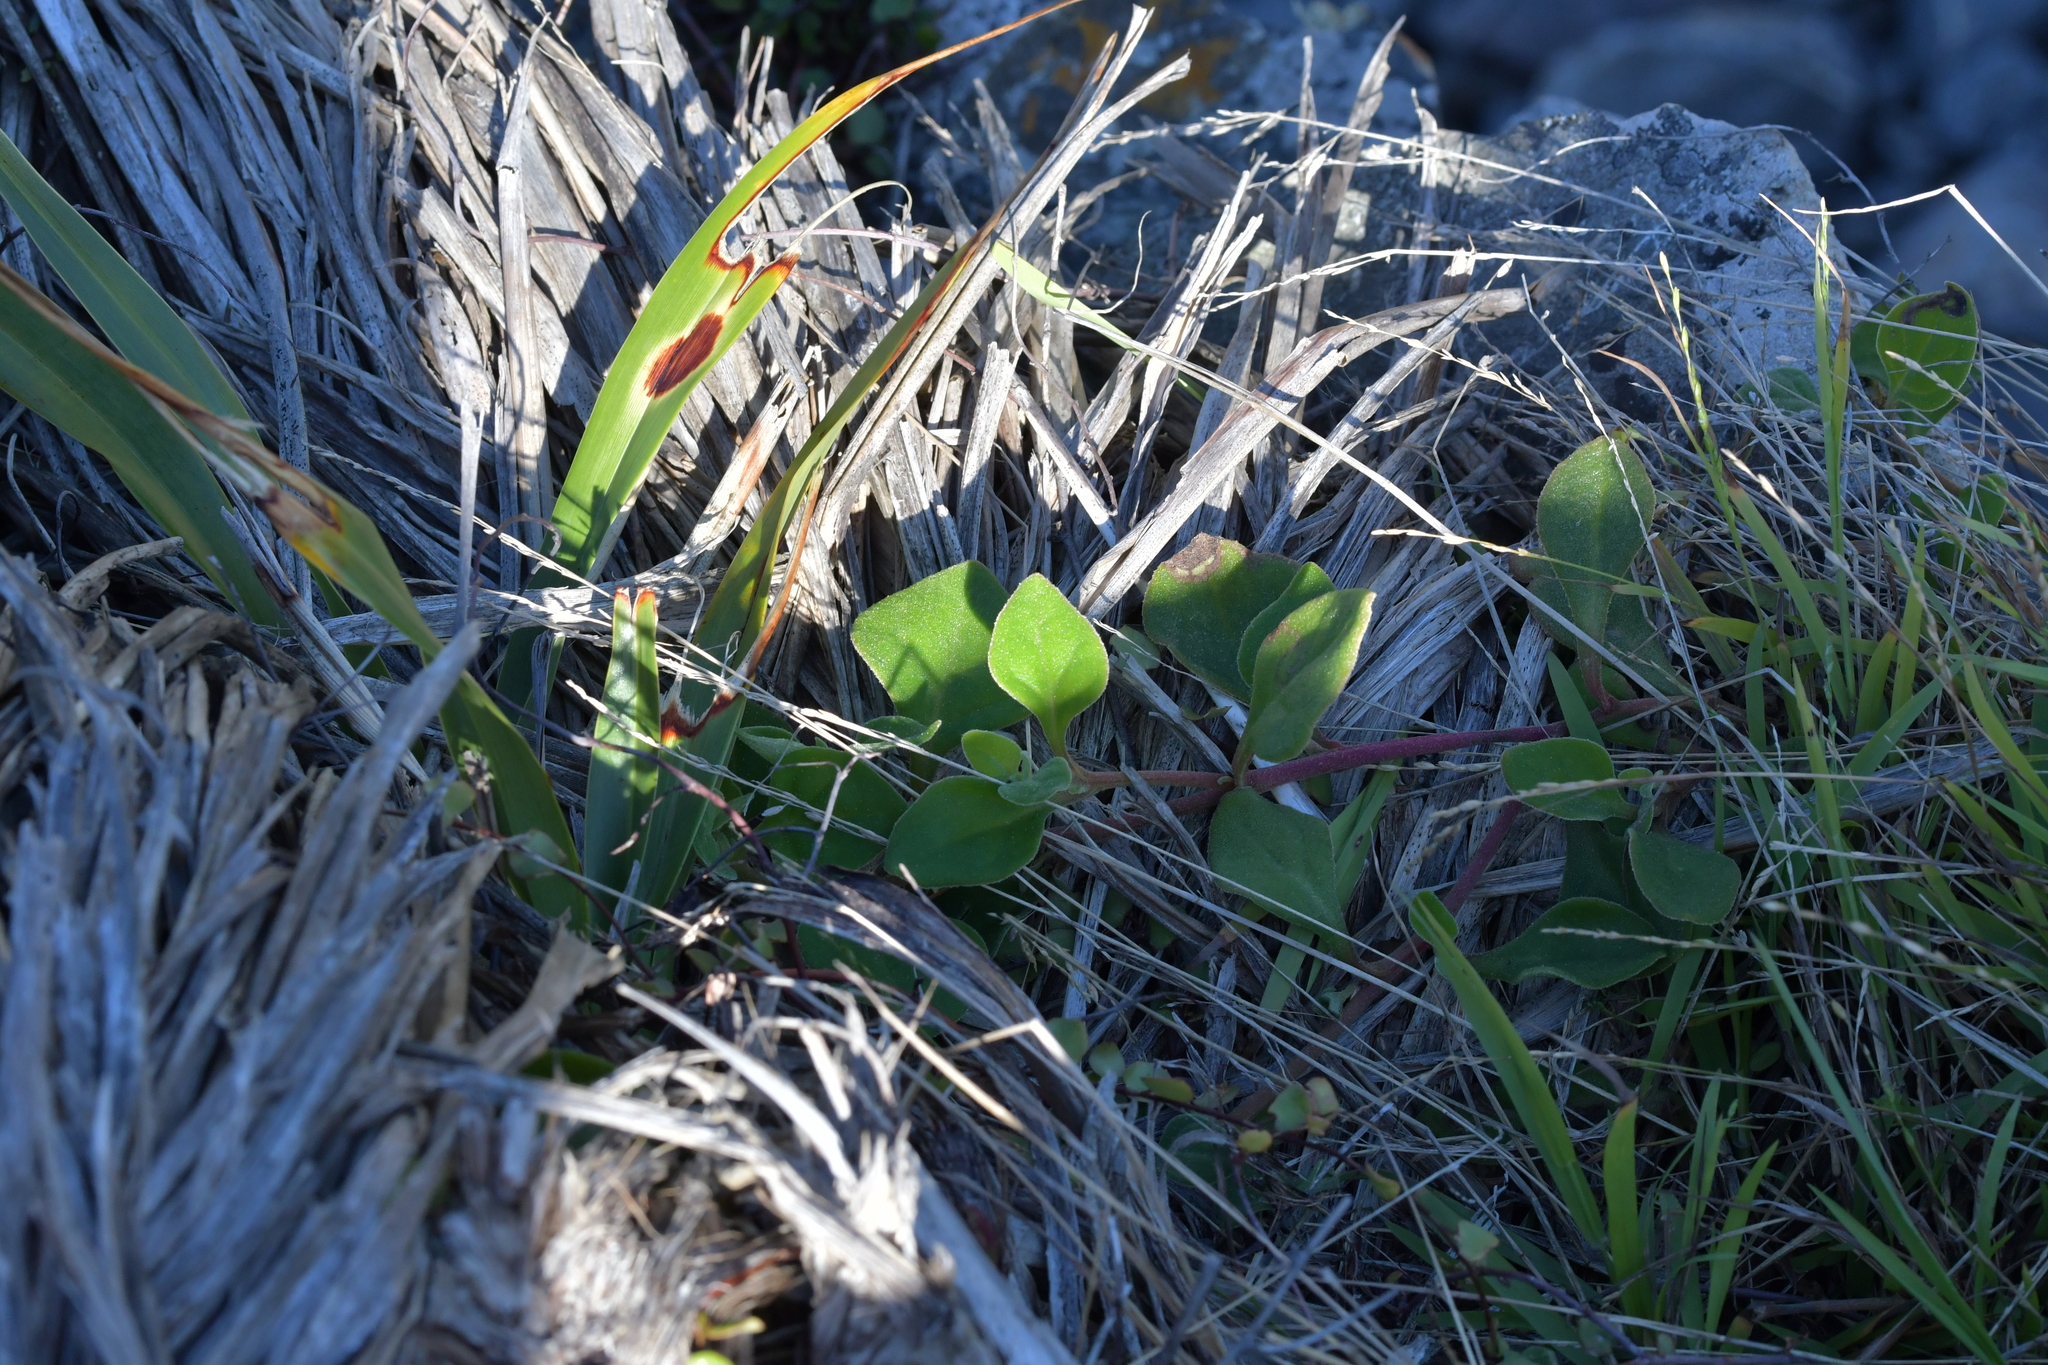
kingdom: Plantae
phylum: Tracheophyta
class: Magnoliopsida
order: Caryophyllales
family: Aizoaceae
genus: Tetragonia
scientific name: Tetragonia implexicoma
